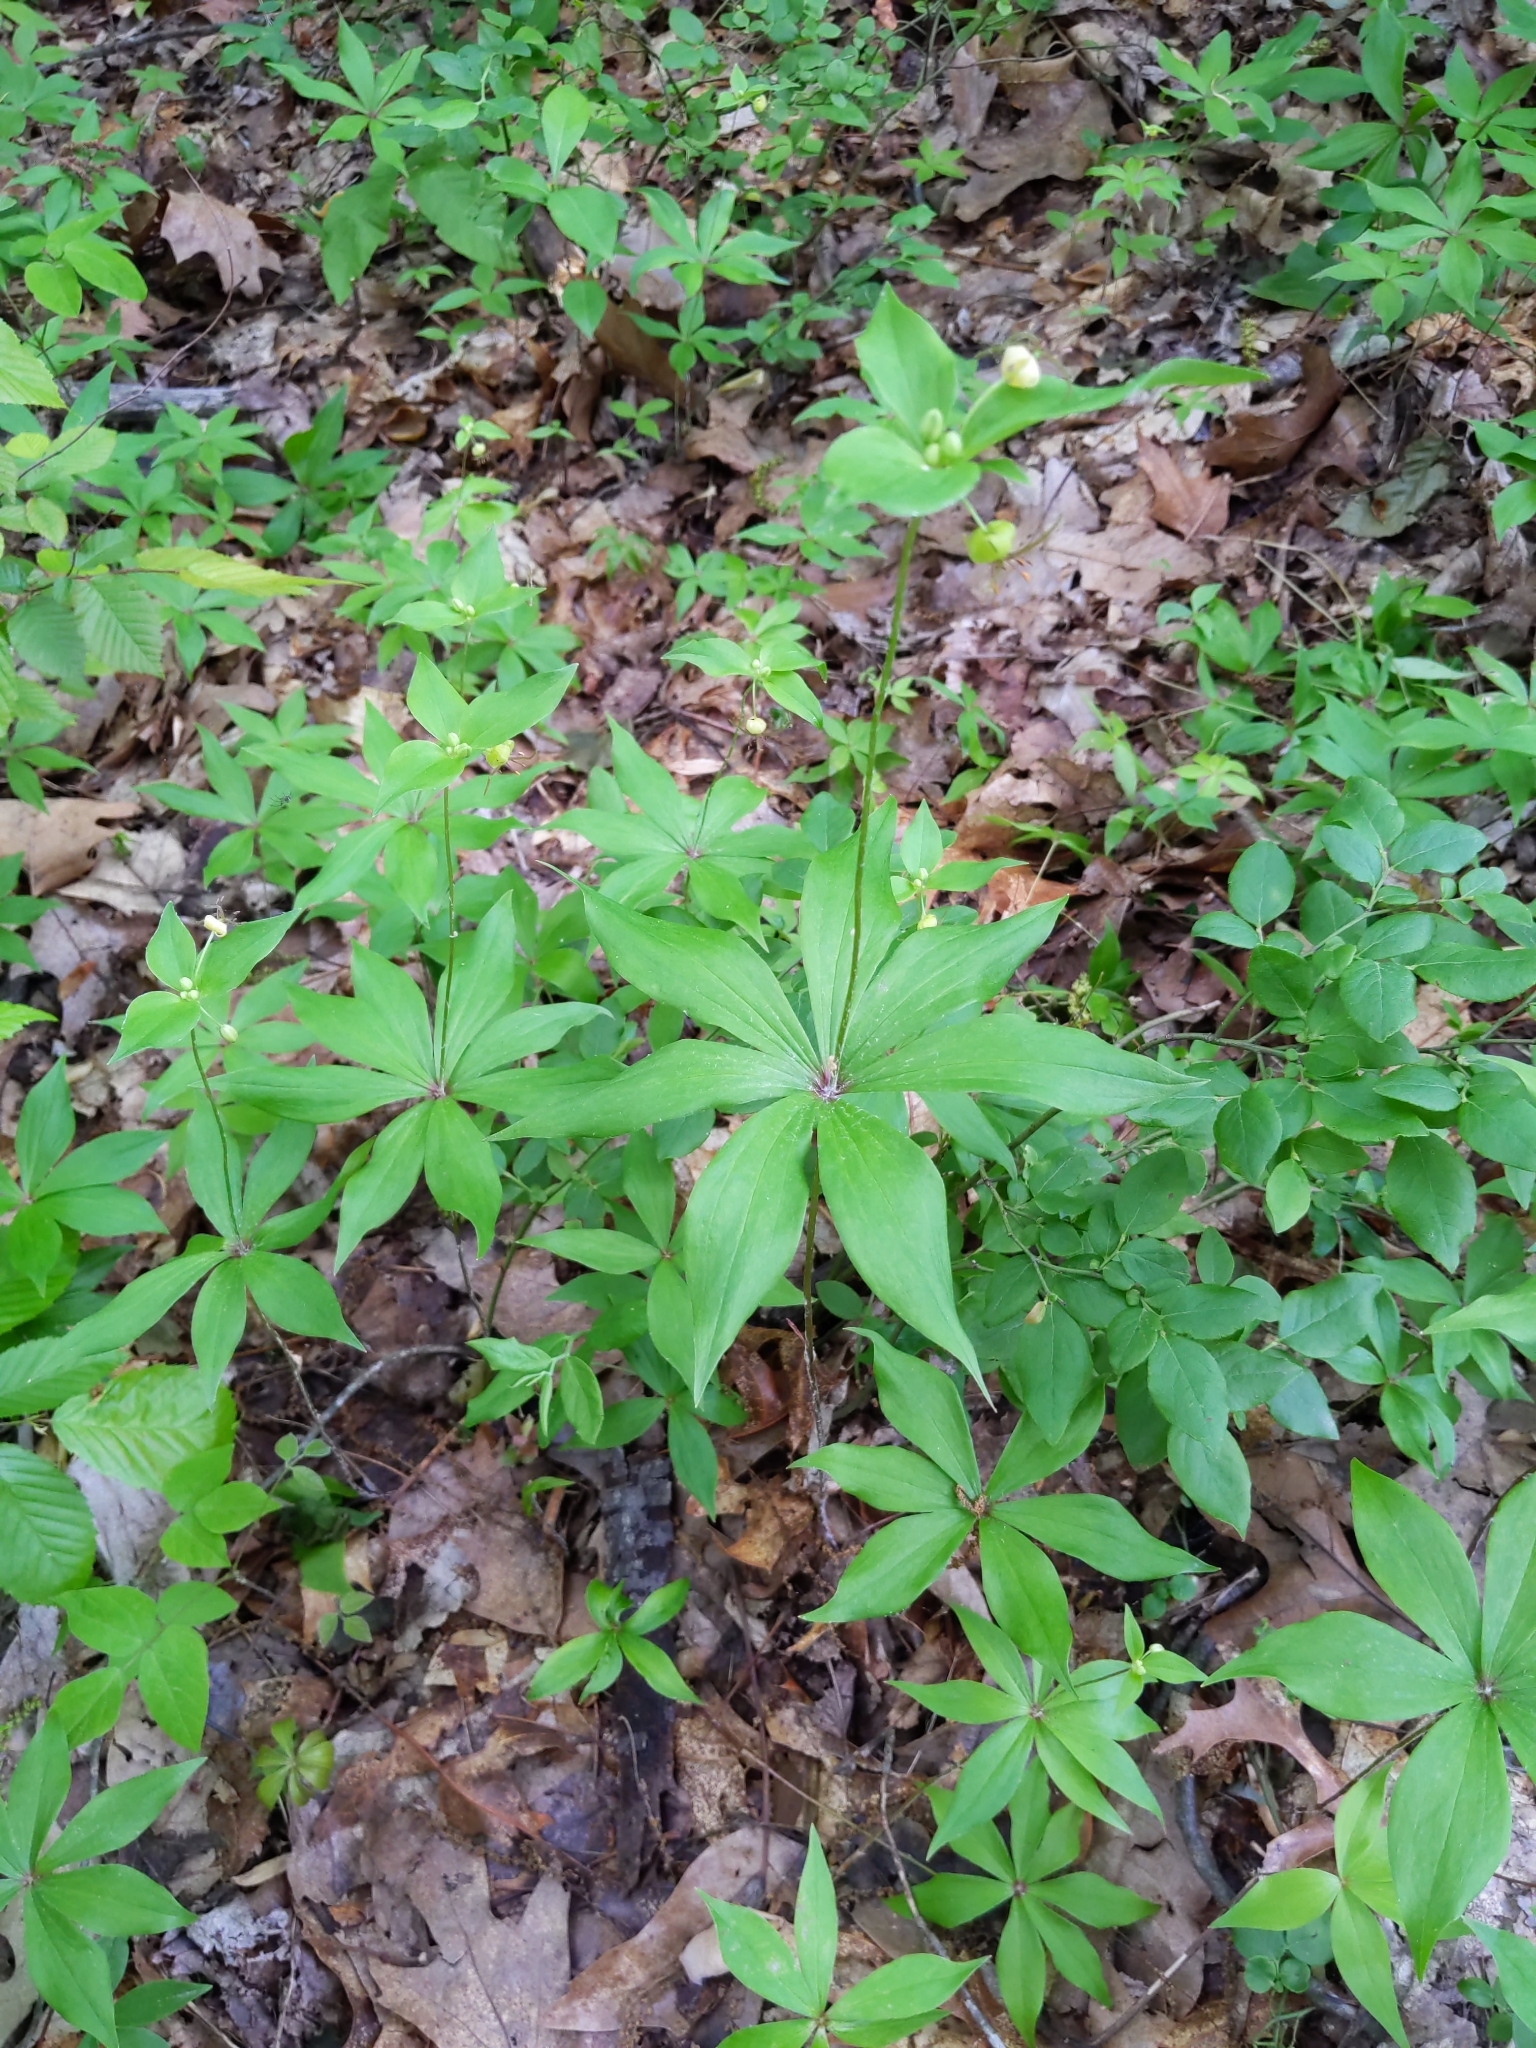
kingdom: Plantae
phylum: Tracheophyta
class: Liliopsida
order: Liliales
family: Liliaceae
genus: Medeola
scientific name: Medeola virginiana
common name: Indian cucumber-root
